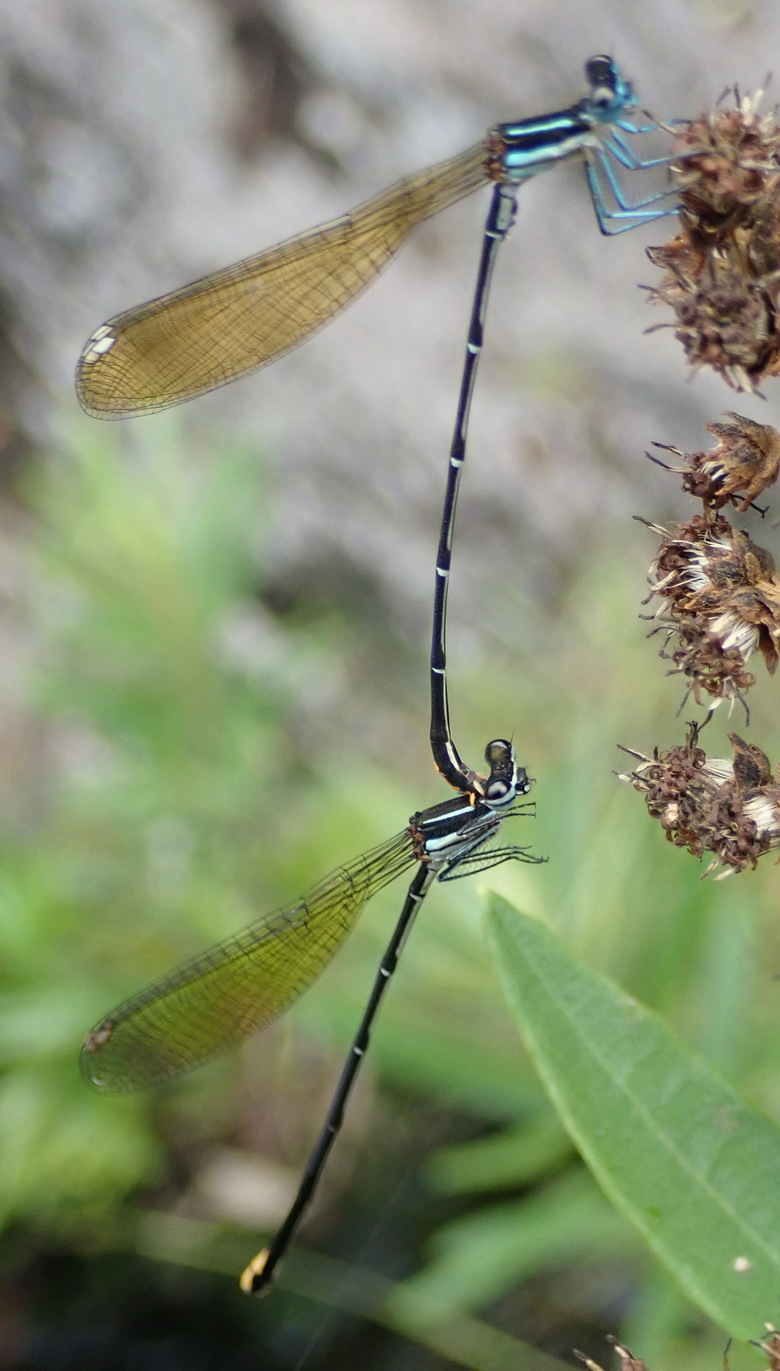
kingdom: Animalia
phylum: Arthropoda
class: Insecta
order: Odonata
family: Platycnemididae
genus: Allocnemis
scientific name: Allocnemis leucosticta
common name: Goldtail
